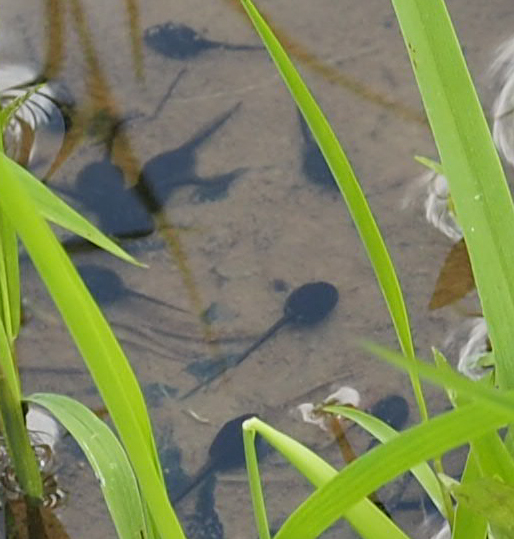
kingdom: Animalia
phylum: Chordata
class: Amphibia
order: Anura
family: Bufonidae
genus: Anaxyrus
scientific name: Anaxyrus americanus
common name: American toad
